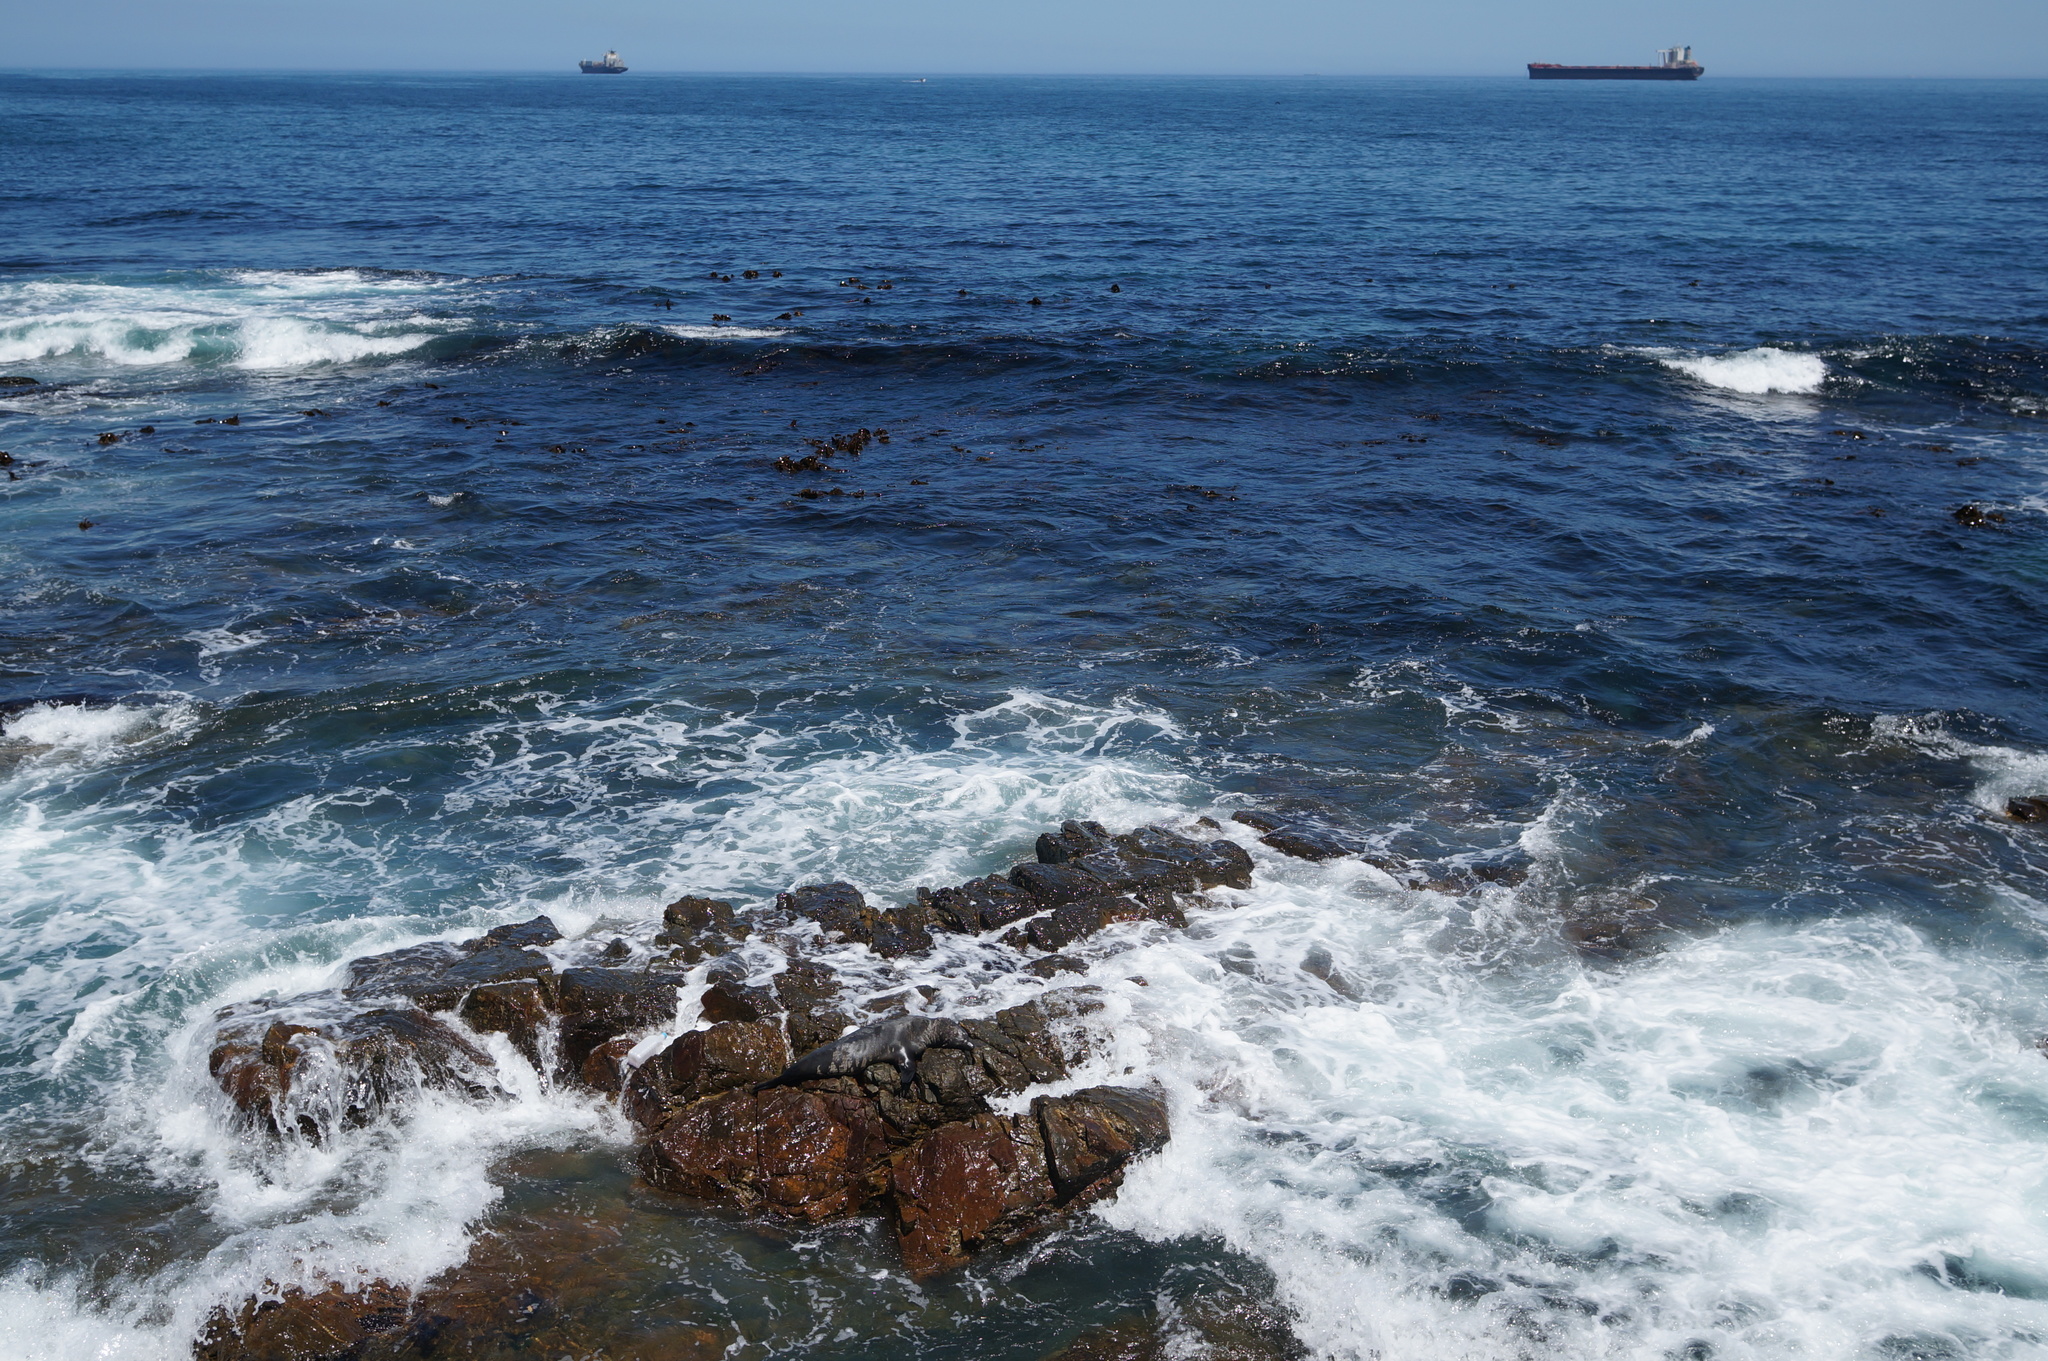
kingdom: Animalia
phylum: Chordata
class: Mammalia
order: Carnivora
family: Otariidae
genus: Arctocephalus
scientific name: Arctocephalus pusillus
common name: Brown fur seal
